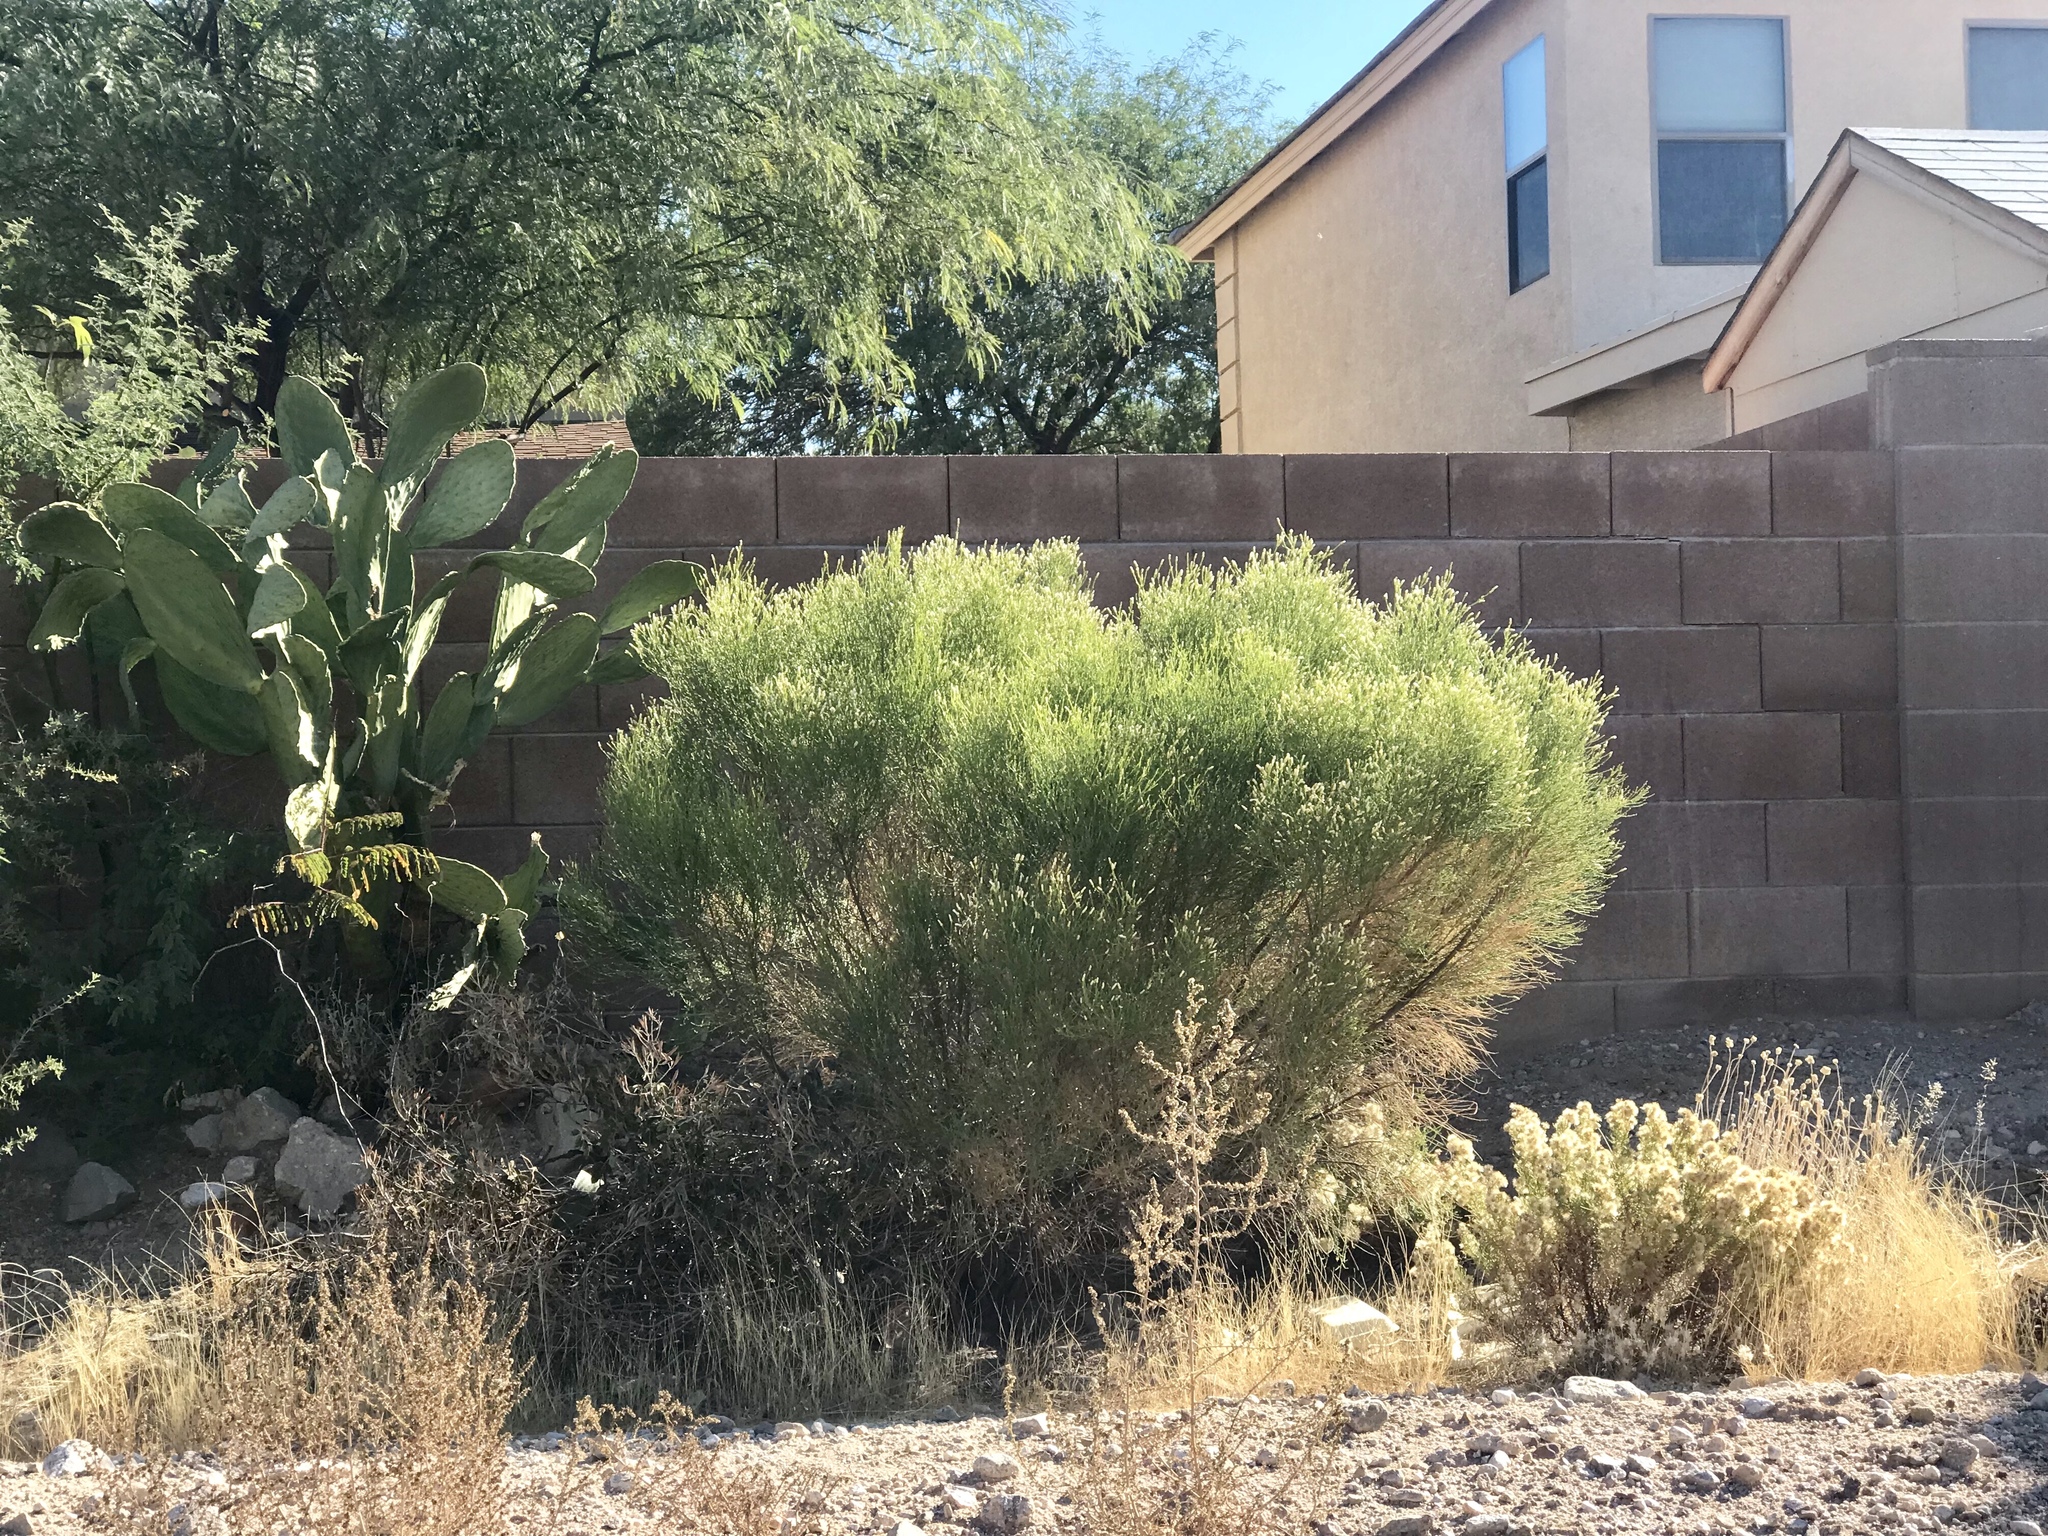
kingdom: Plantae
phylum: Tracheophyta
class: Magnoliopsida
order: Asterales
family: Asteraceae
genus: Baccharis
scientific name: Baccharis sarothroides
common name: Desert-broom
